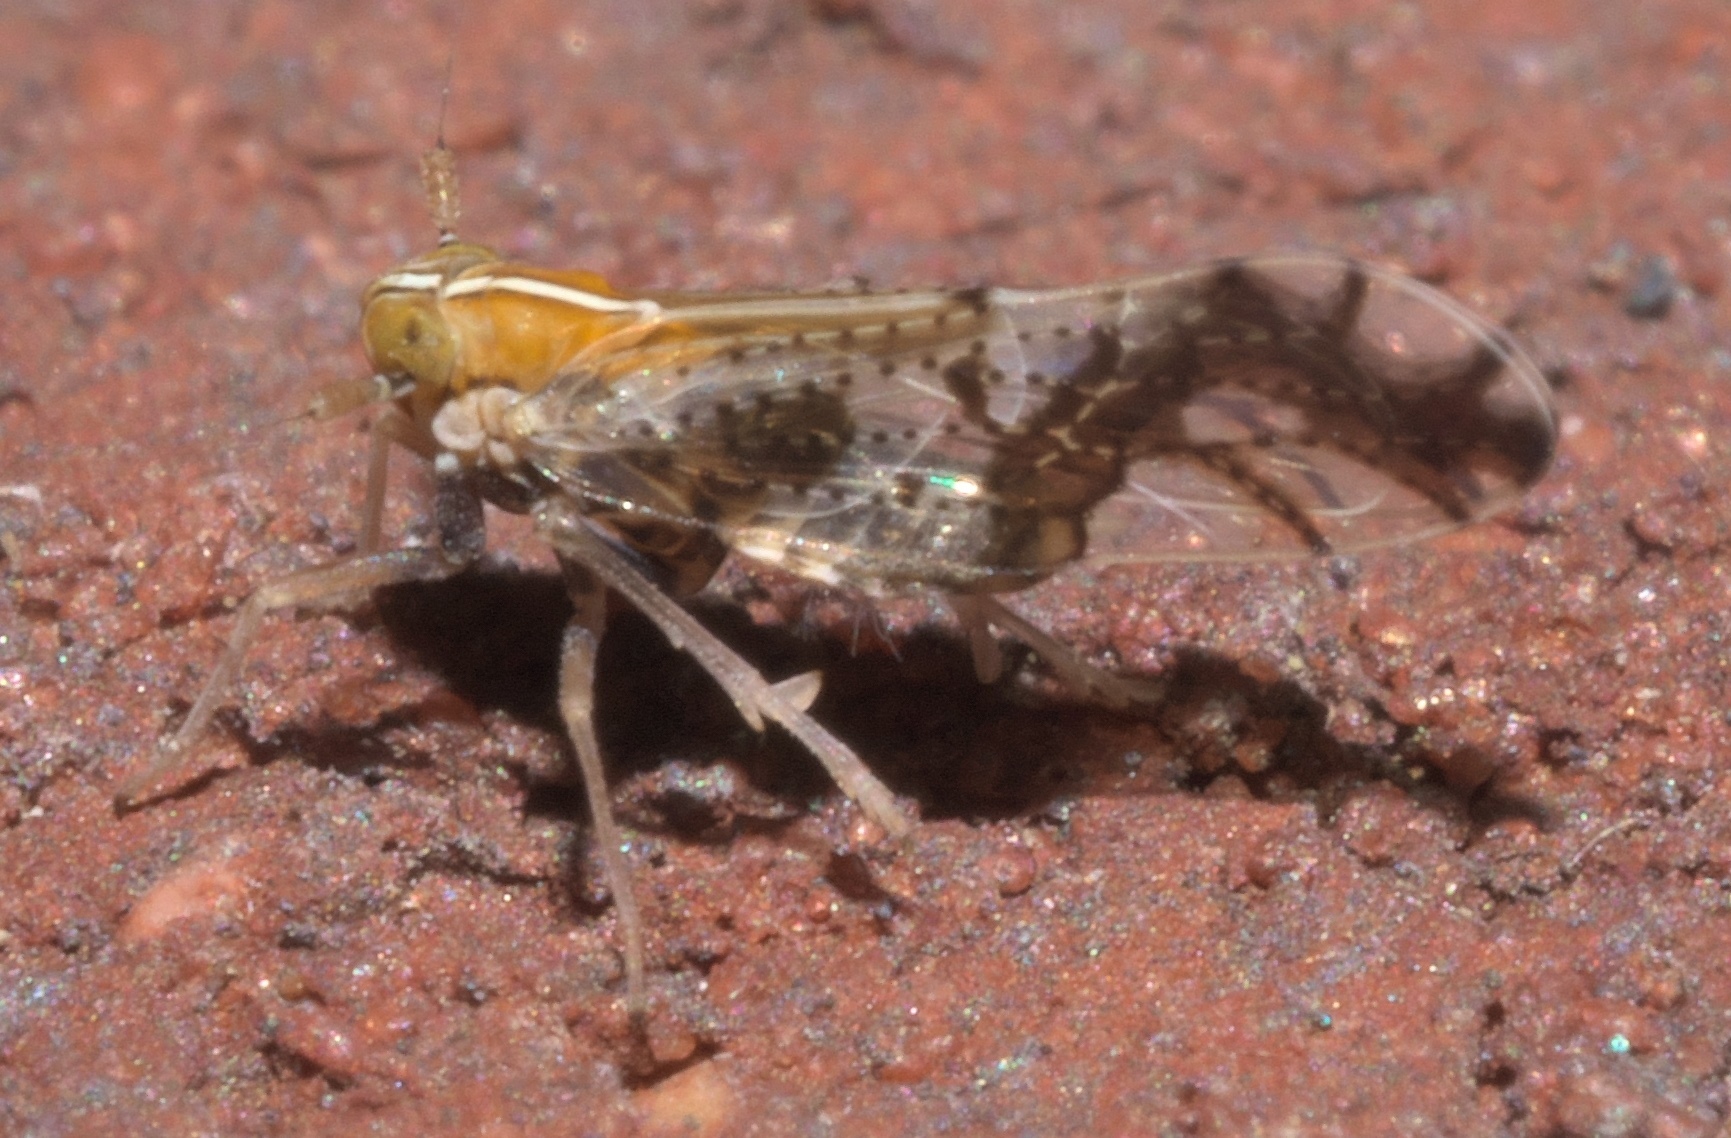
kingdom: Animalia
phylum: Arthropoda
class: Insecta
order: Hemiptera
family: Delphacidae
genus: Liburniella
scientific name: Liburniella ornata
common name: Ornate planthopper
